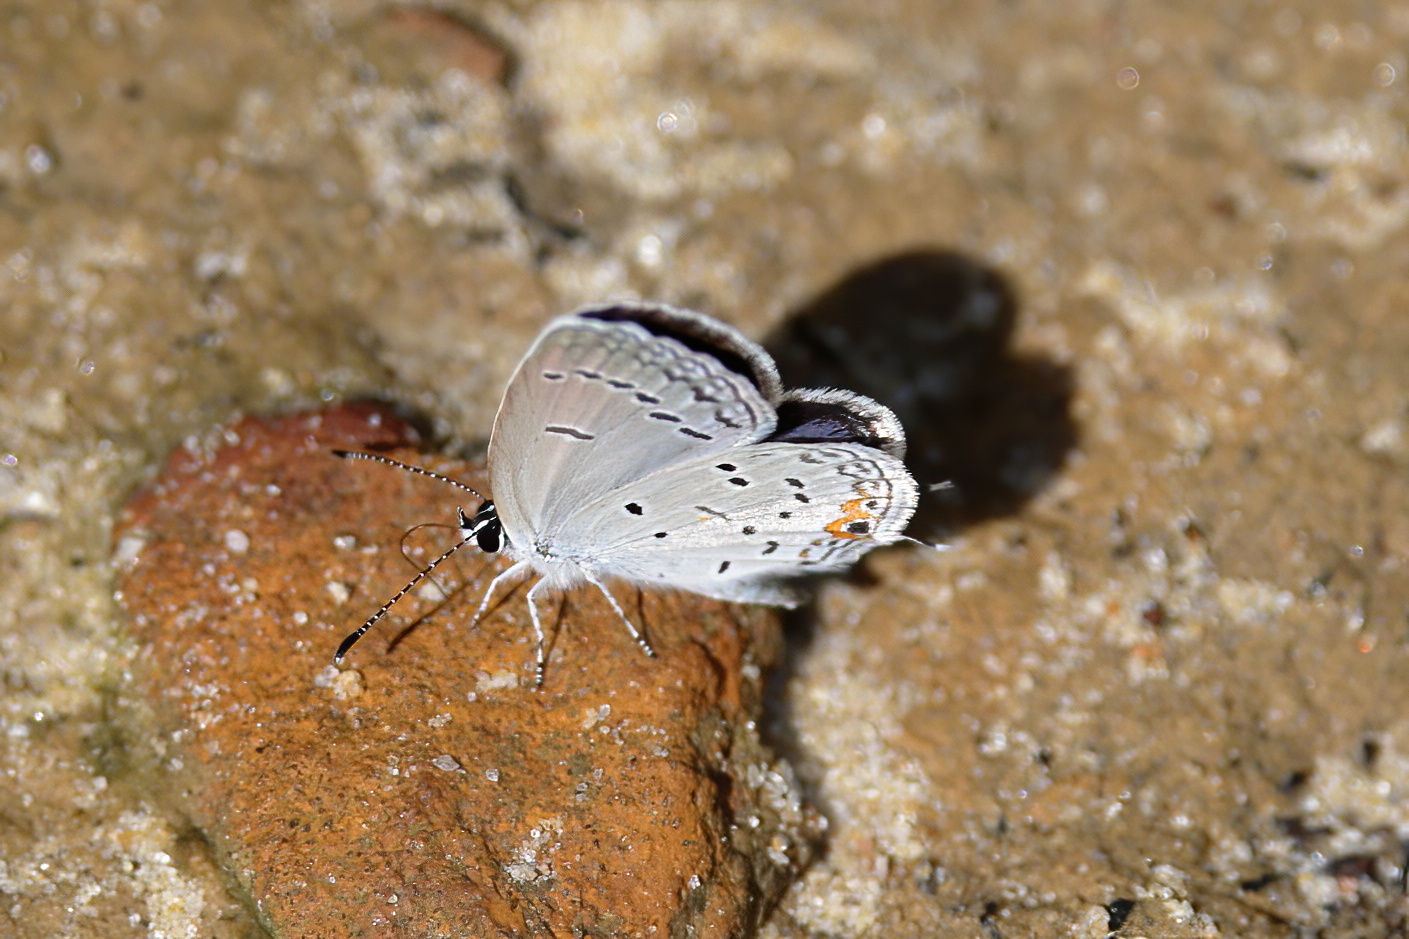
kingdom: Animalia
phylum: Arthropoda
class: Insecta
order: Lepidoptera
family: Lycaenidae
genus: Elkalyce
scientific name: Elkalyce comyntas
